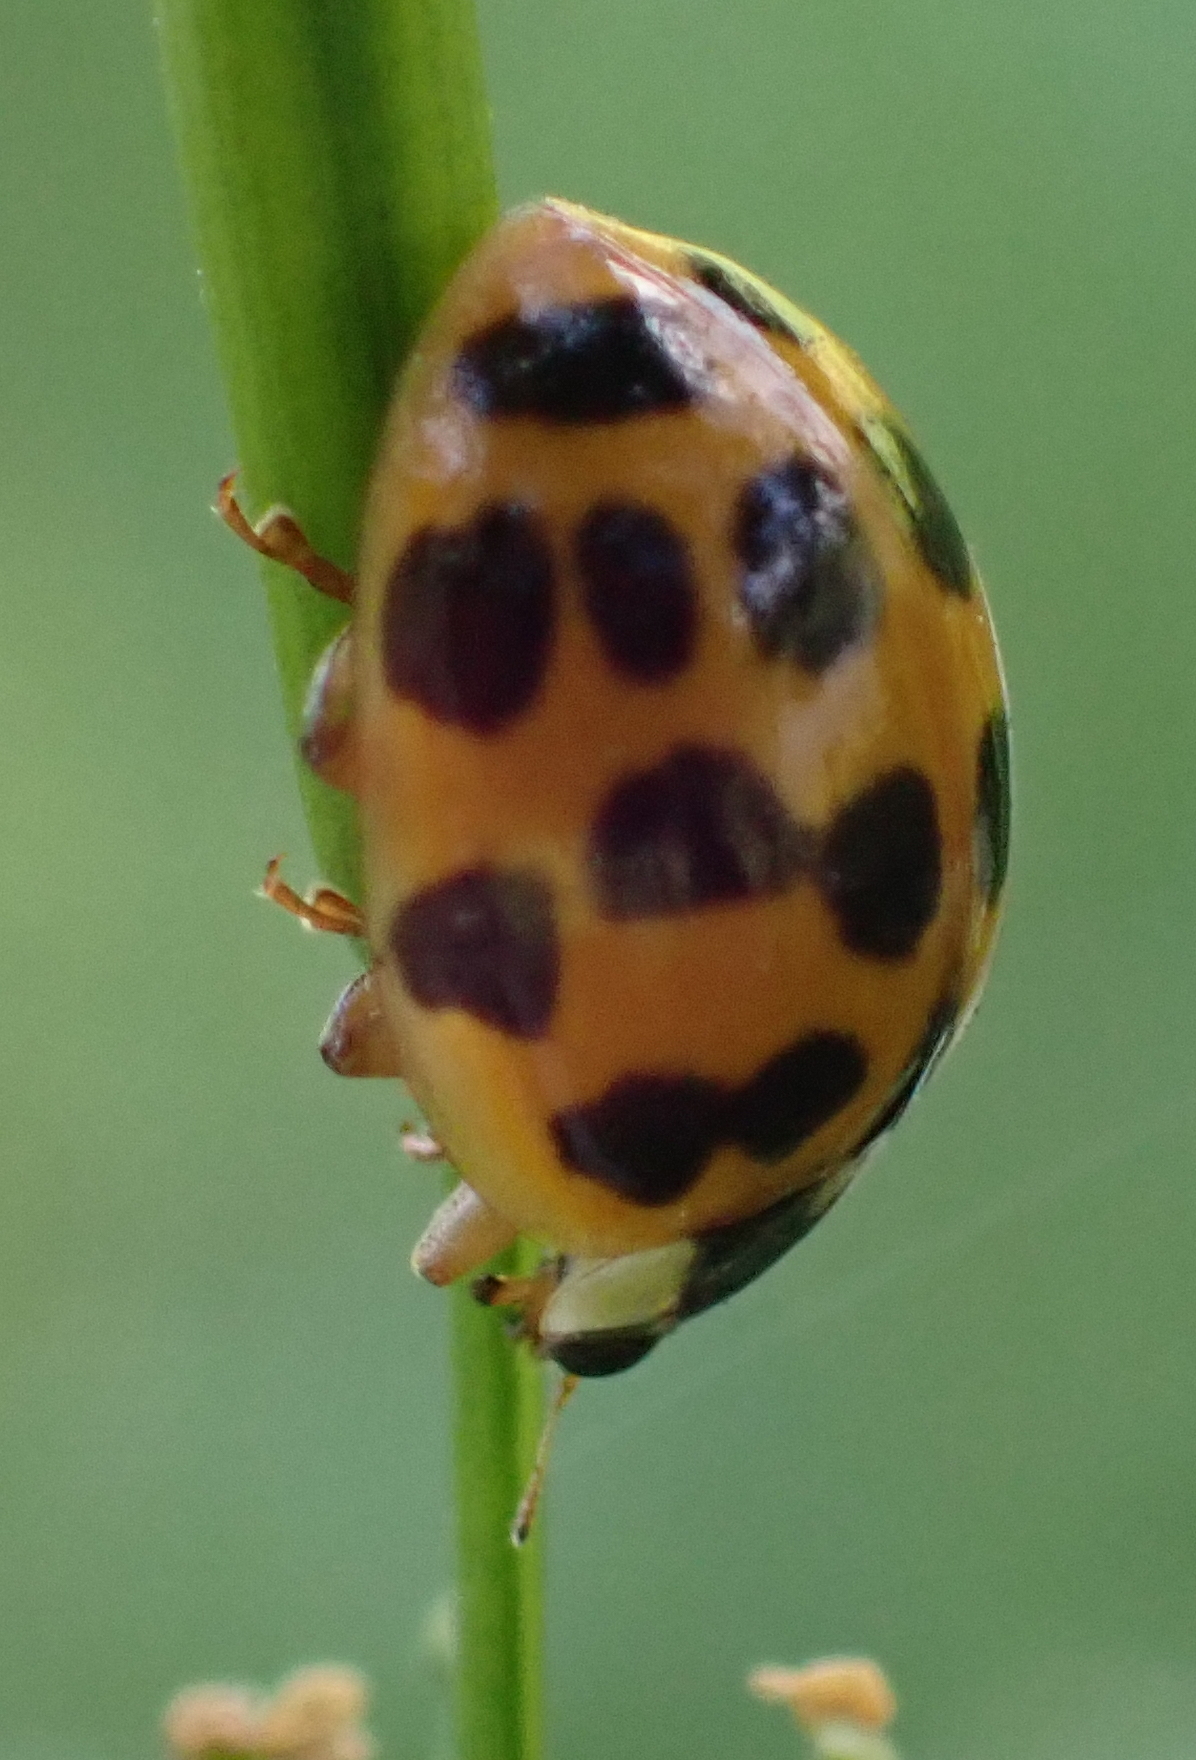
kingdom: Animalia
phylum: Arthropoda
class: Insecta
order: Coleoptera
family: Coccinellidae
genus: Harmonia
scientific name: Harmonia axyridis
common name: Harlequin ladybird
